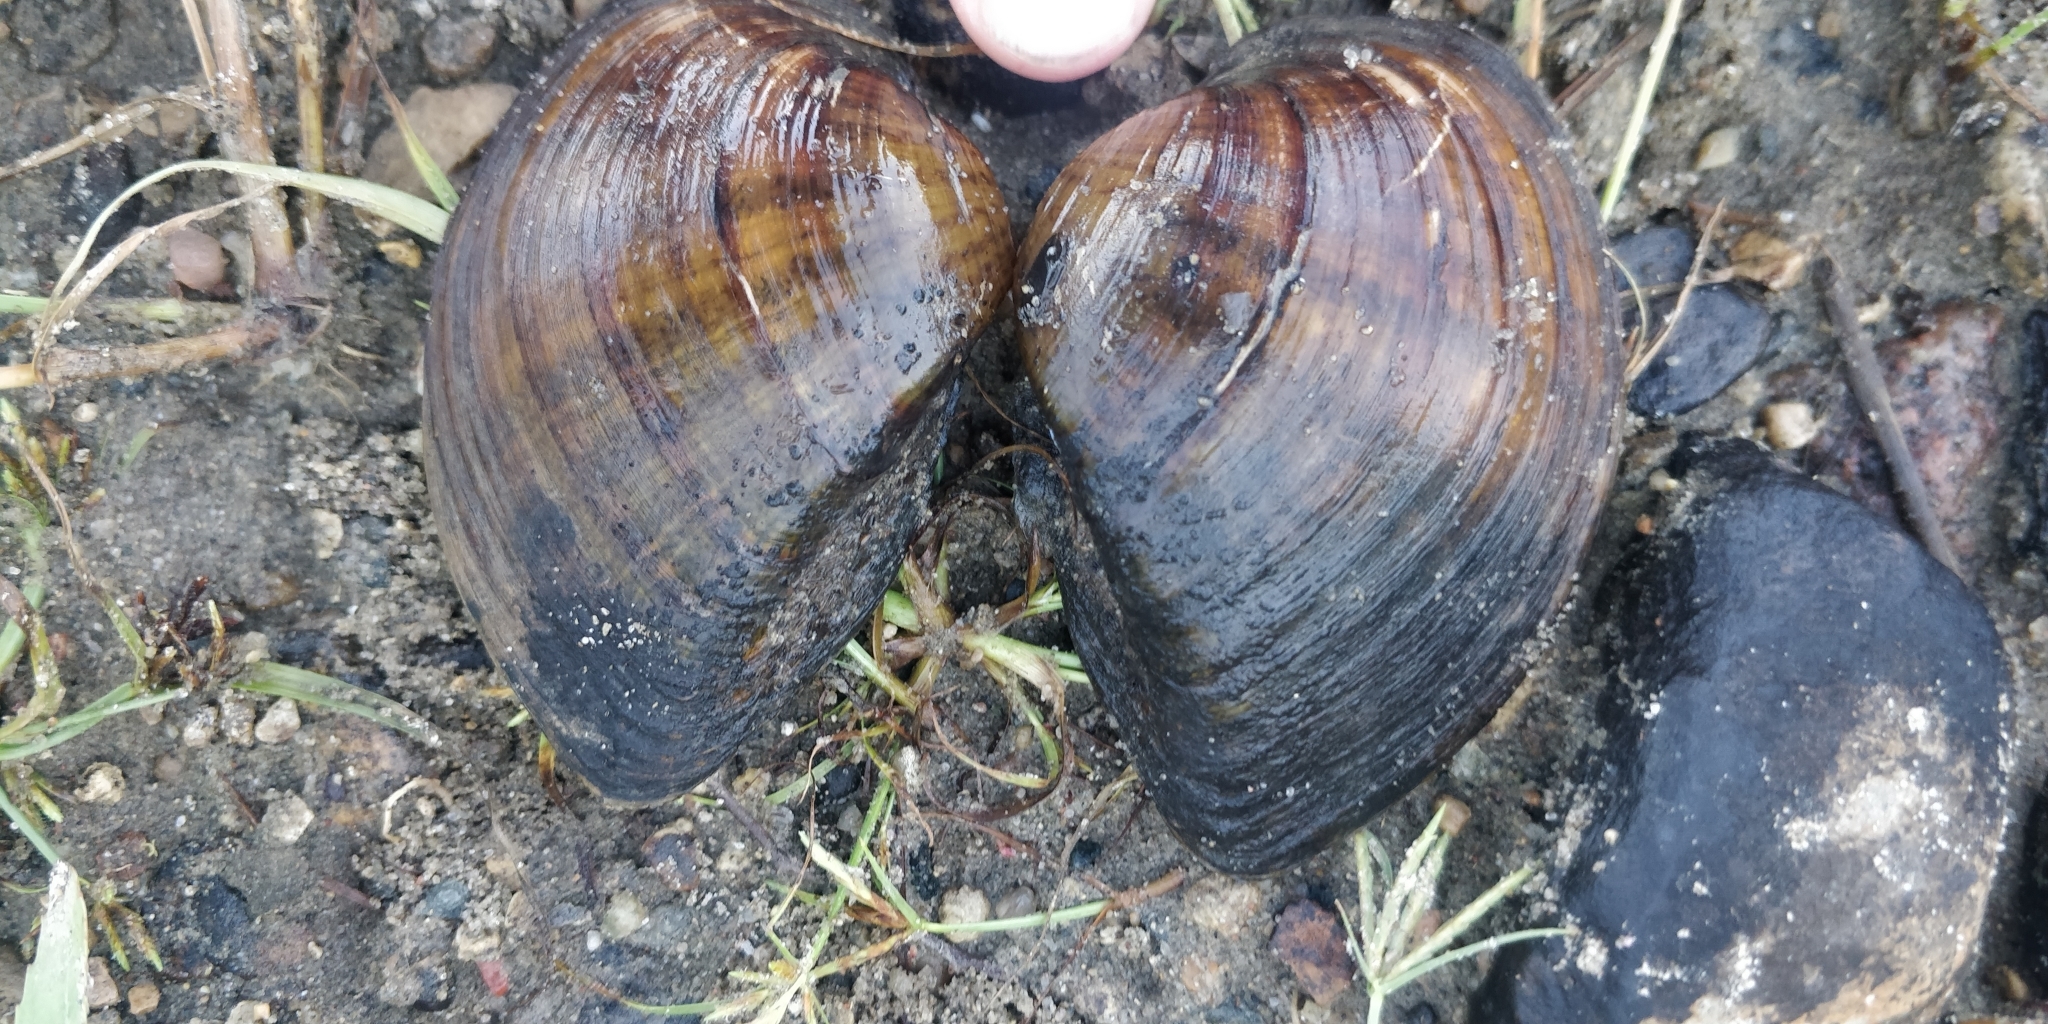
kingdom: Animalia
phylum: Mollusca
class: Bivalvia
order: Unionida
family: Unionidae
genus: Truncilla
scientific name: Truncilla truncata
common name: Deertoe
